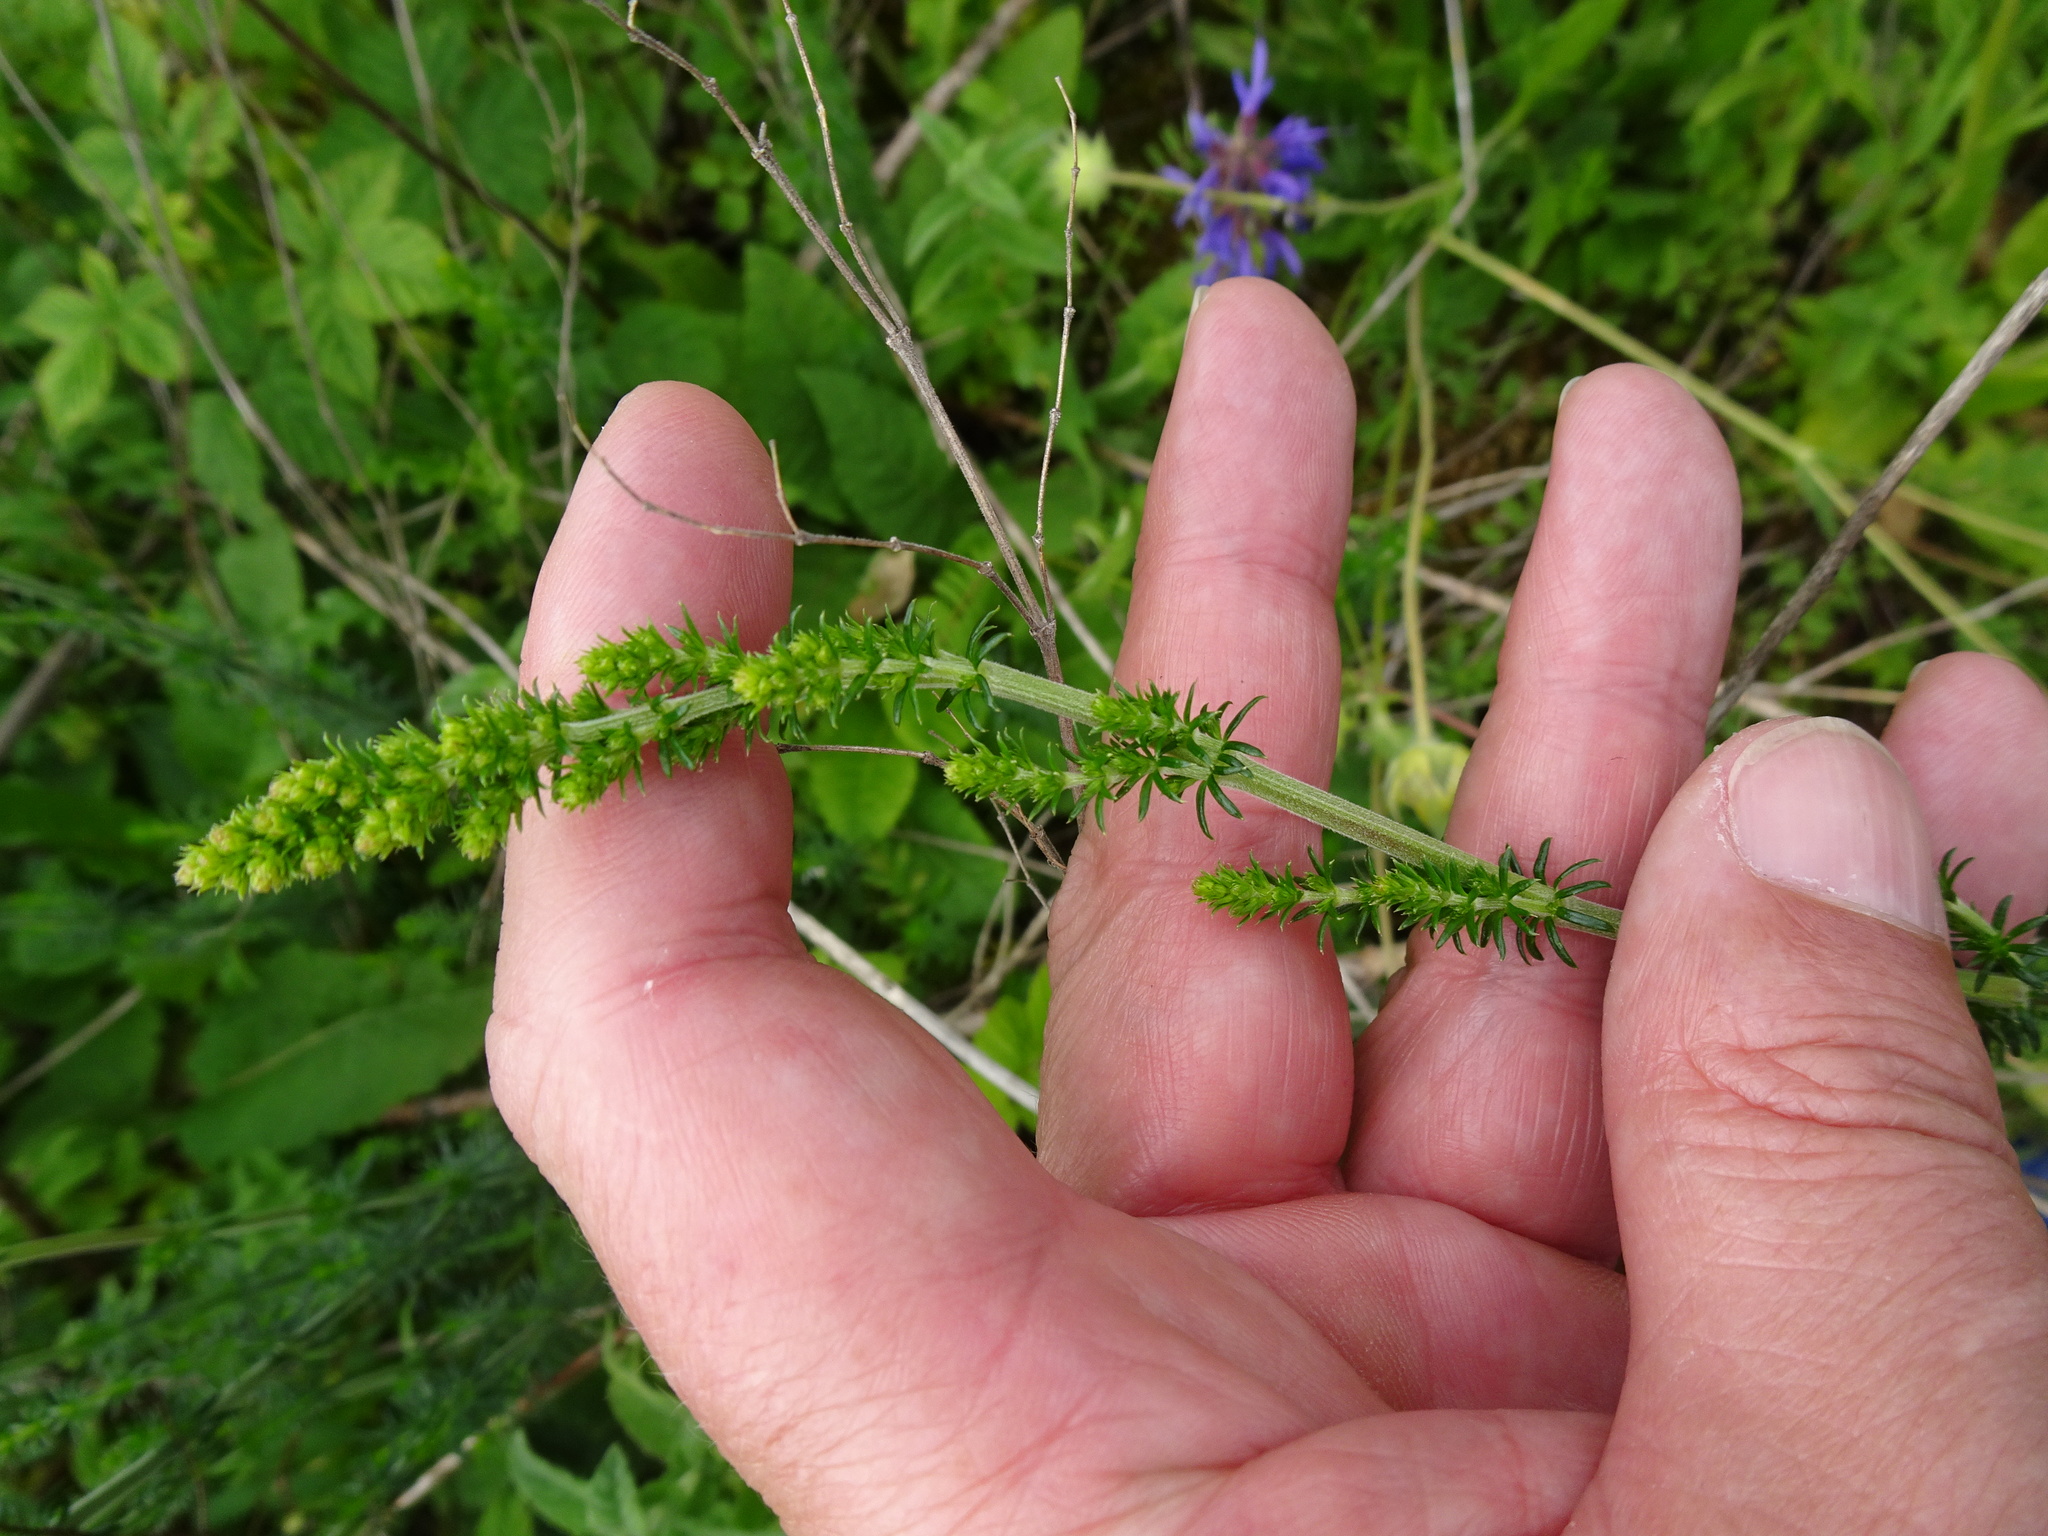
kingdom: Plantae
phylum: Tracheophyta
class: Magnoliopsida
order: Gentianales
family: Rubiaceae
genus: Galium
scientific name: Galium verum
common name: Lady's bedstraw
